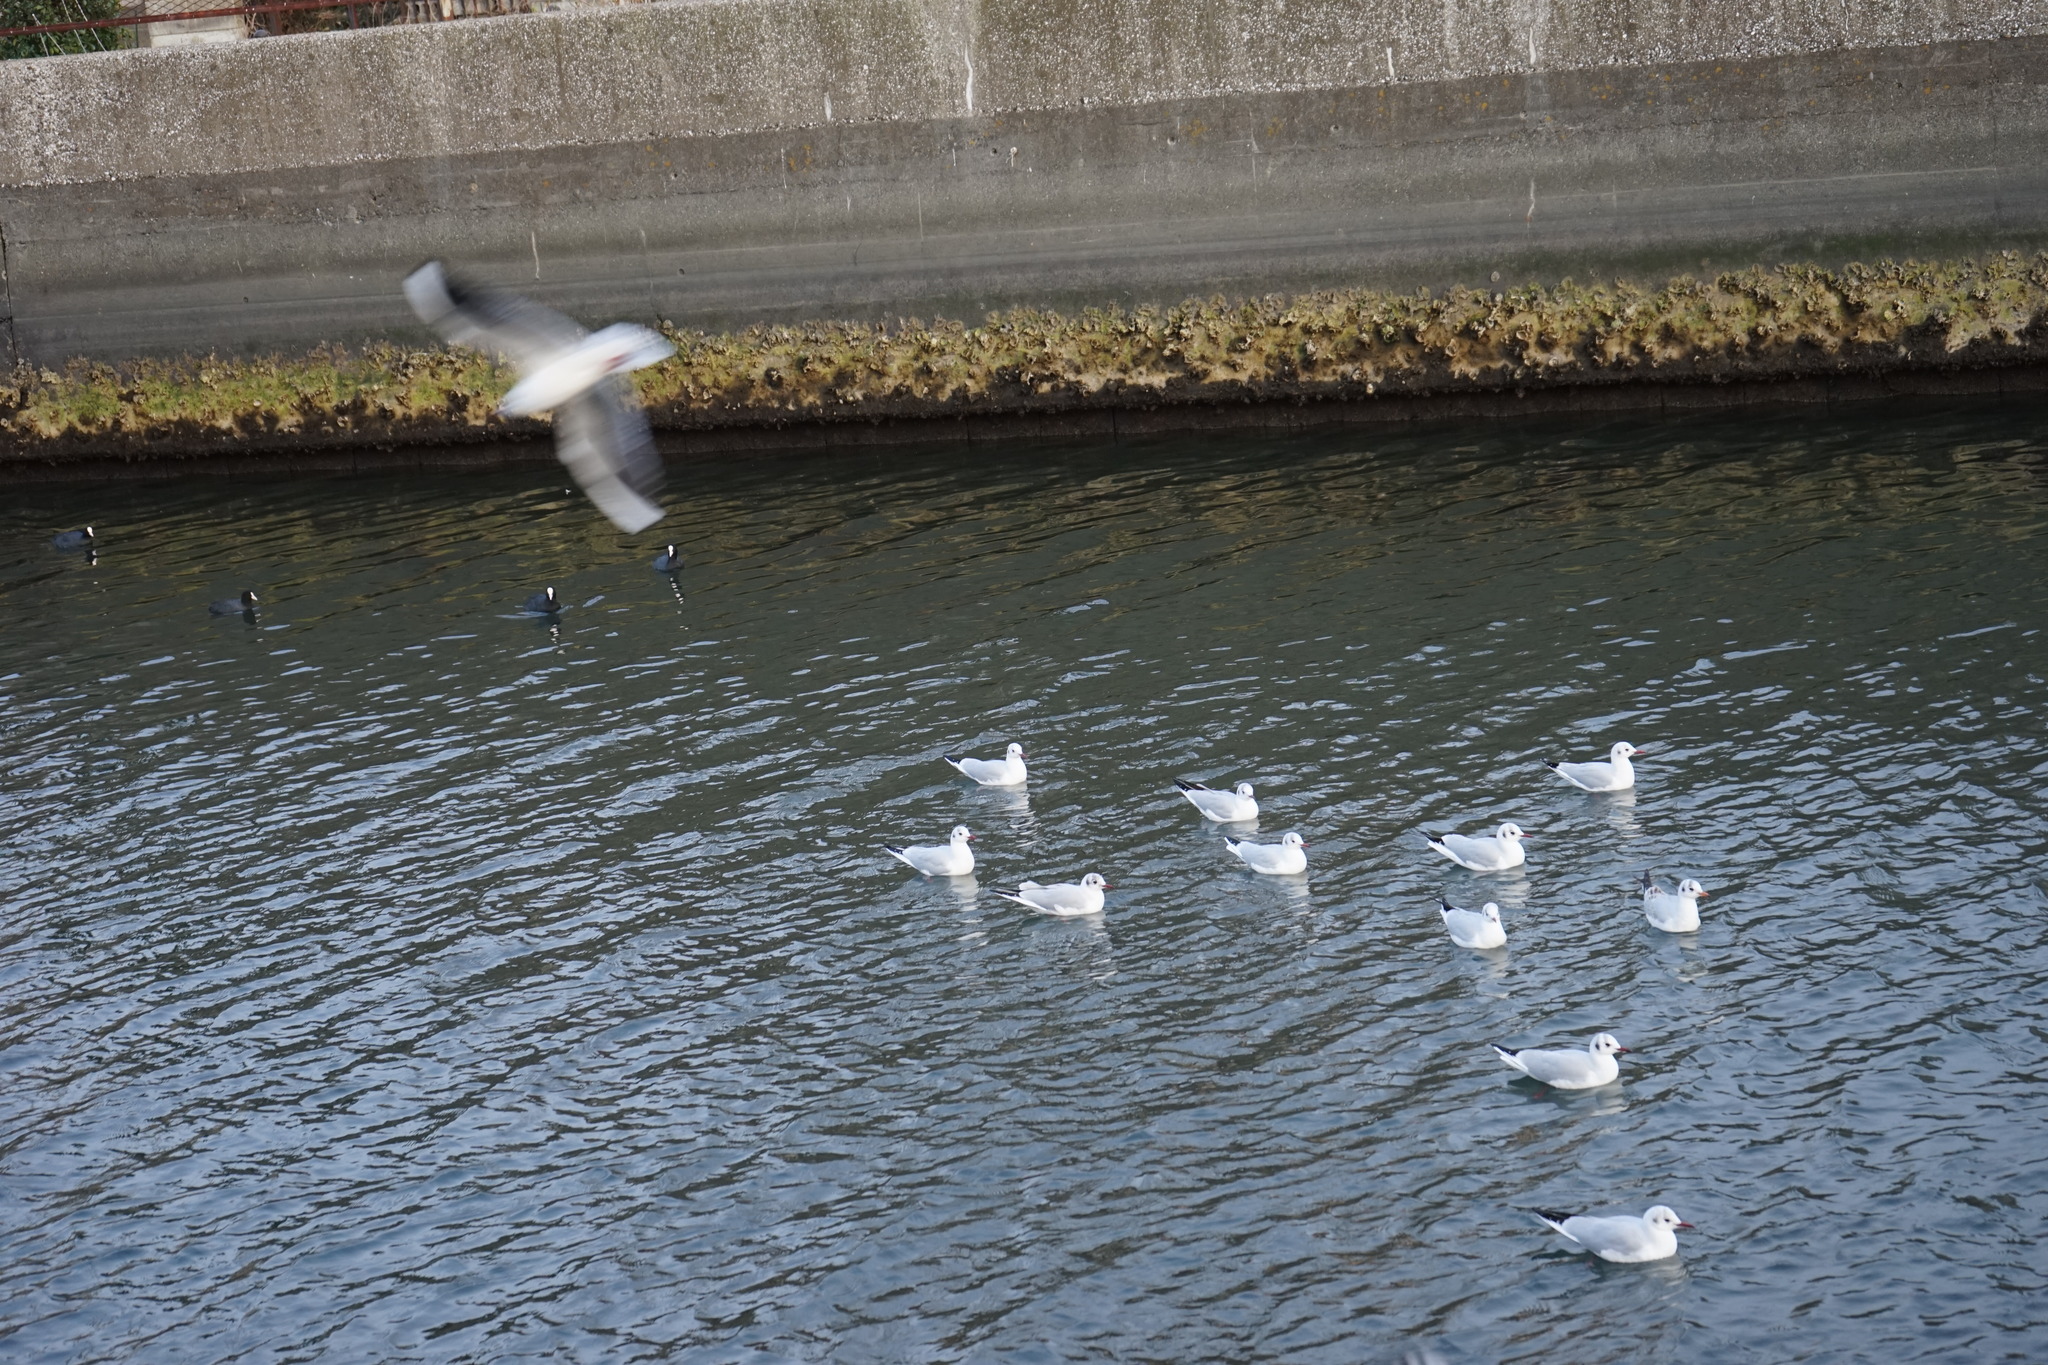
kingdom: Animalia
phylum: Chordata
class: Aves
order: Charadriiformes
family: Laridae
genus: Chroicocephalus
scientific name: Chroicocephalus ridibundus
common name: Black-headed gull
